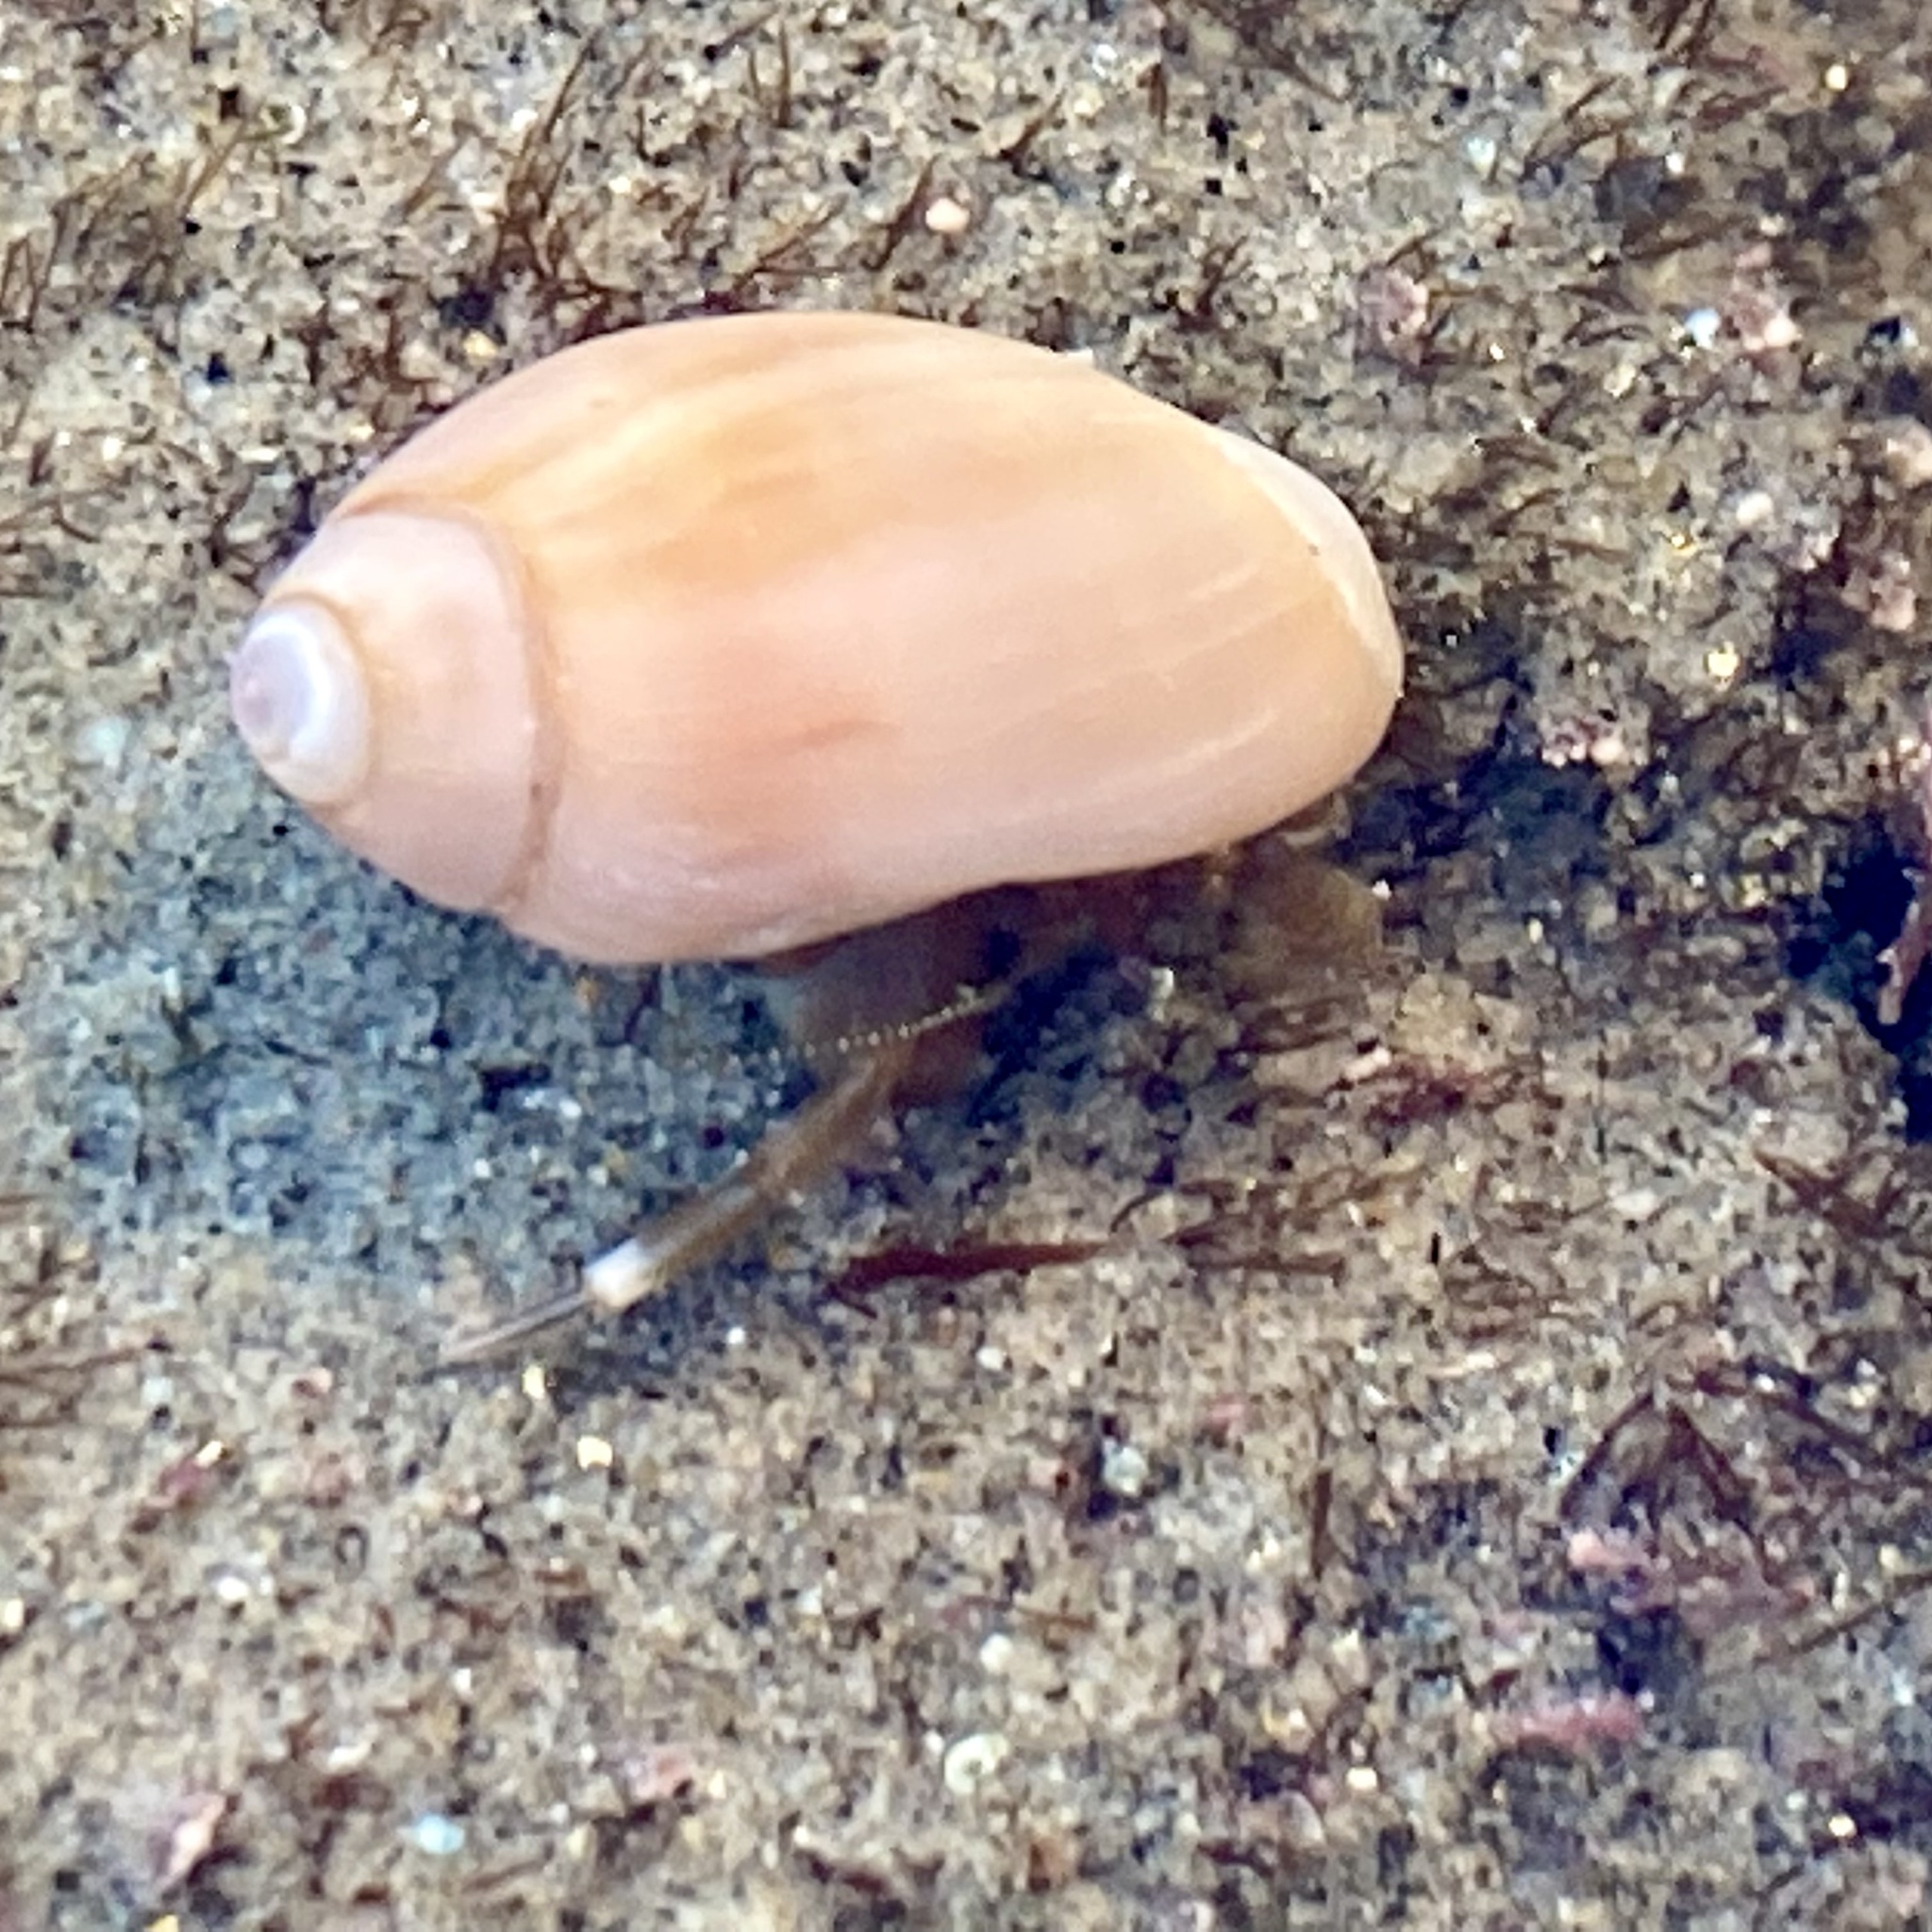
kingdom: Animalia
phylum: Arthropoda
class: Malacostraca
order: Decapoda
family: Paguridae
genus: Pagurus
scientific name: Pagurus venturensis
